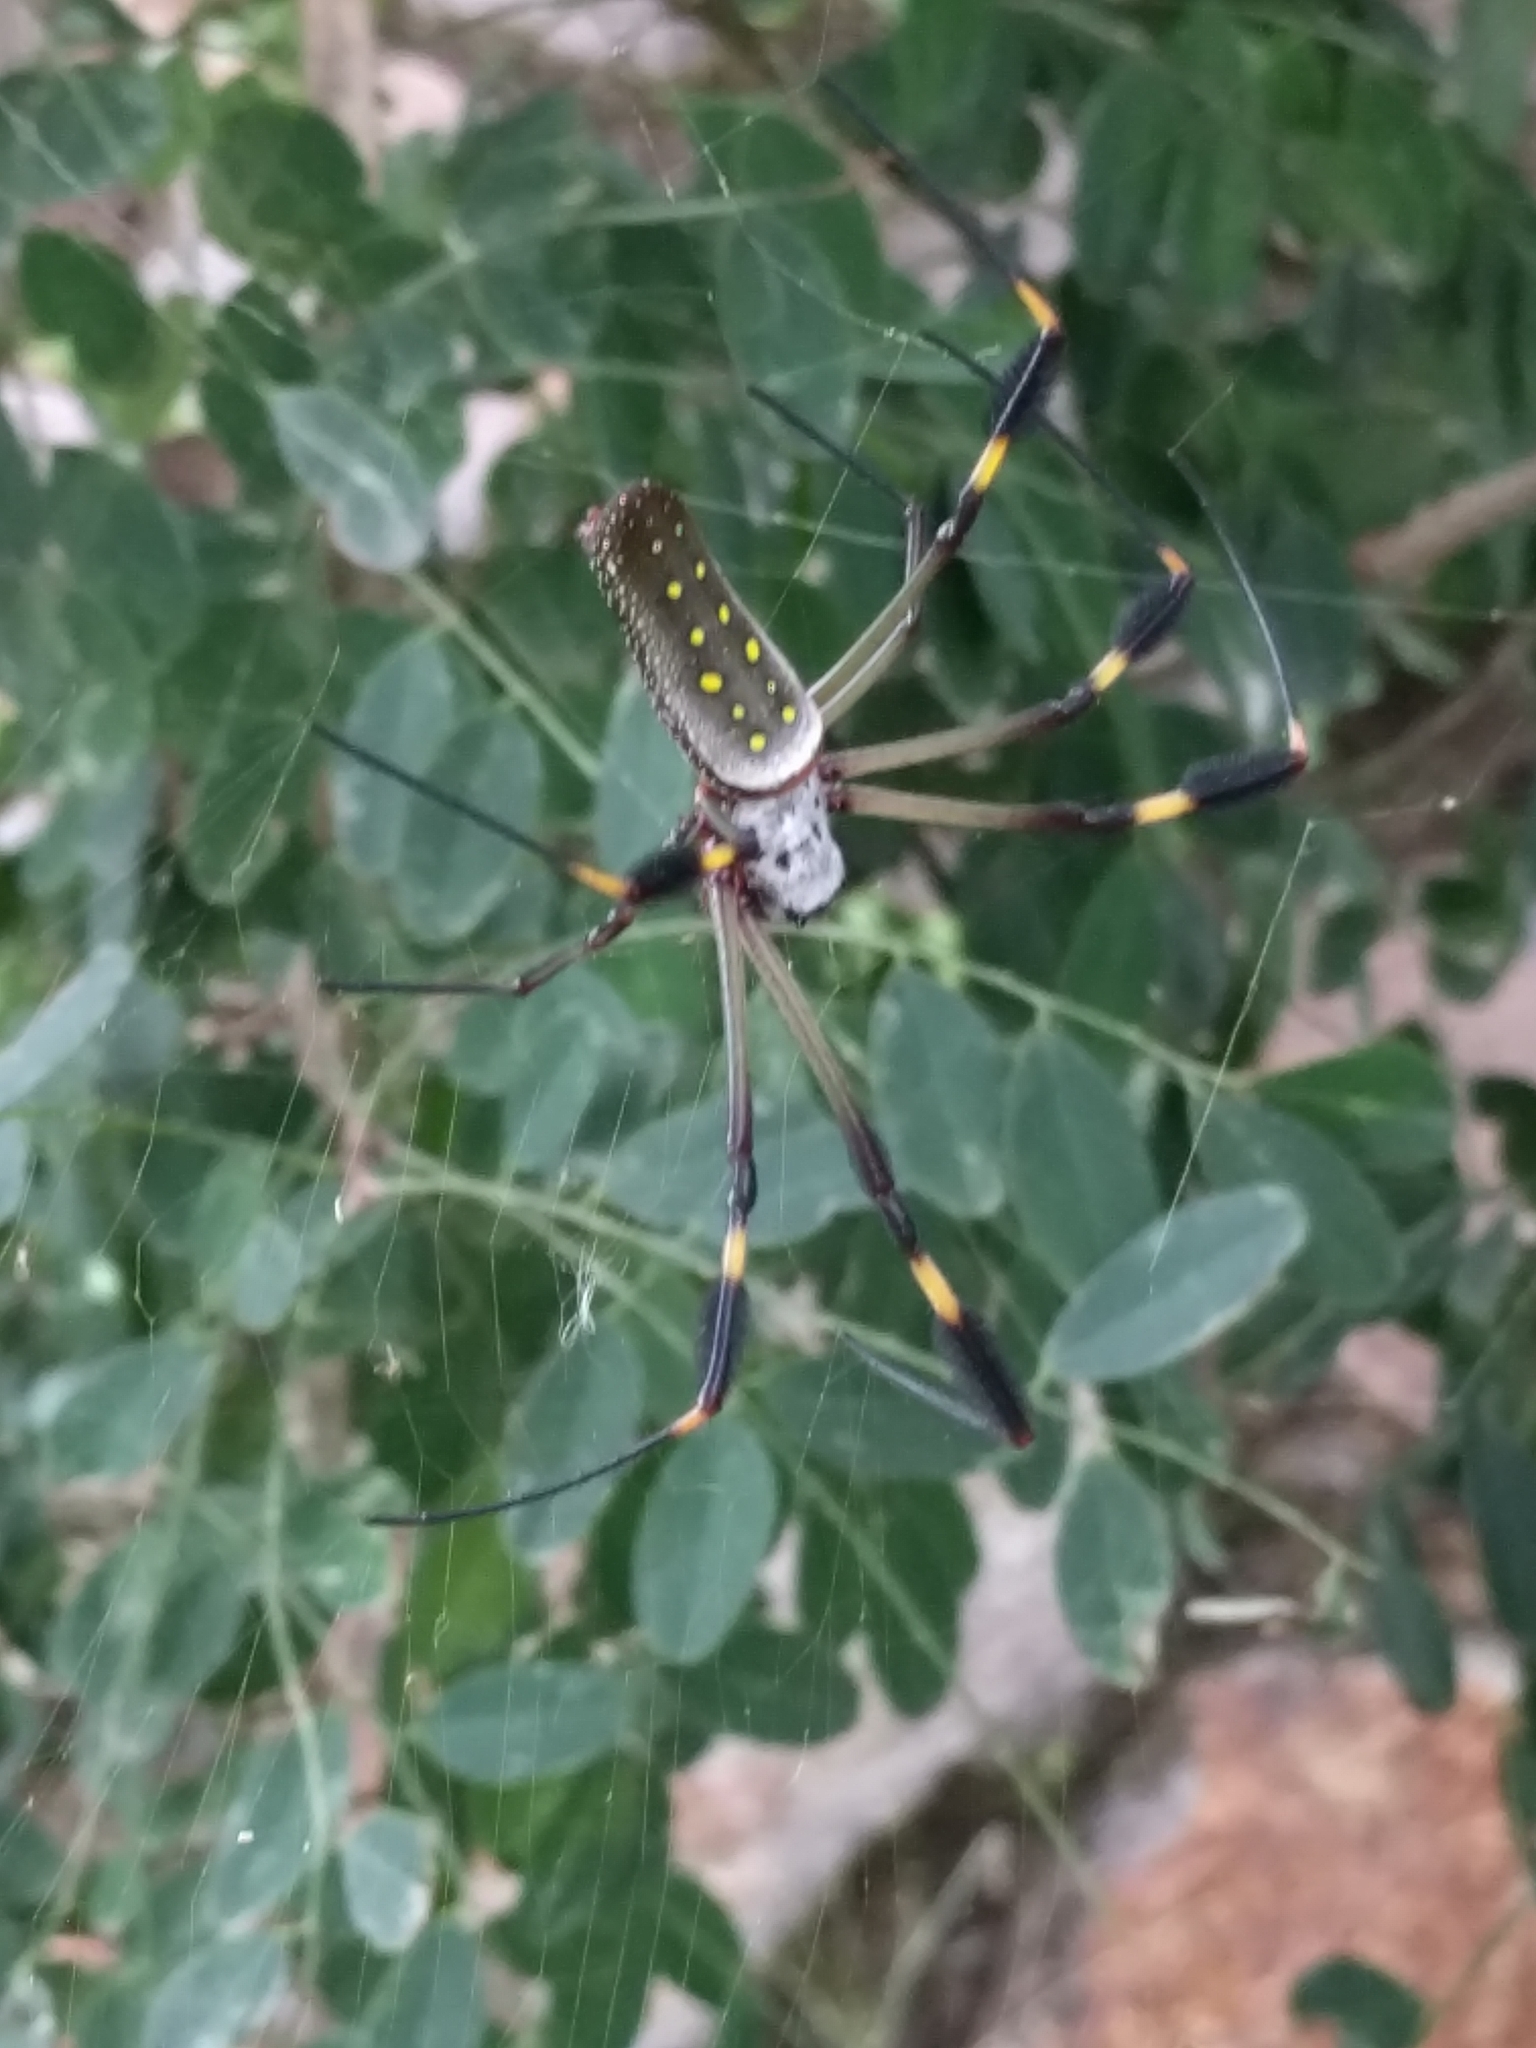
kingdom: Animalia
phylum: Arthropoda
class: Arachnida
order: Araneae
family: Araneidae
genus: Trichonephila
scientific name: Trichonephila clavipes
